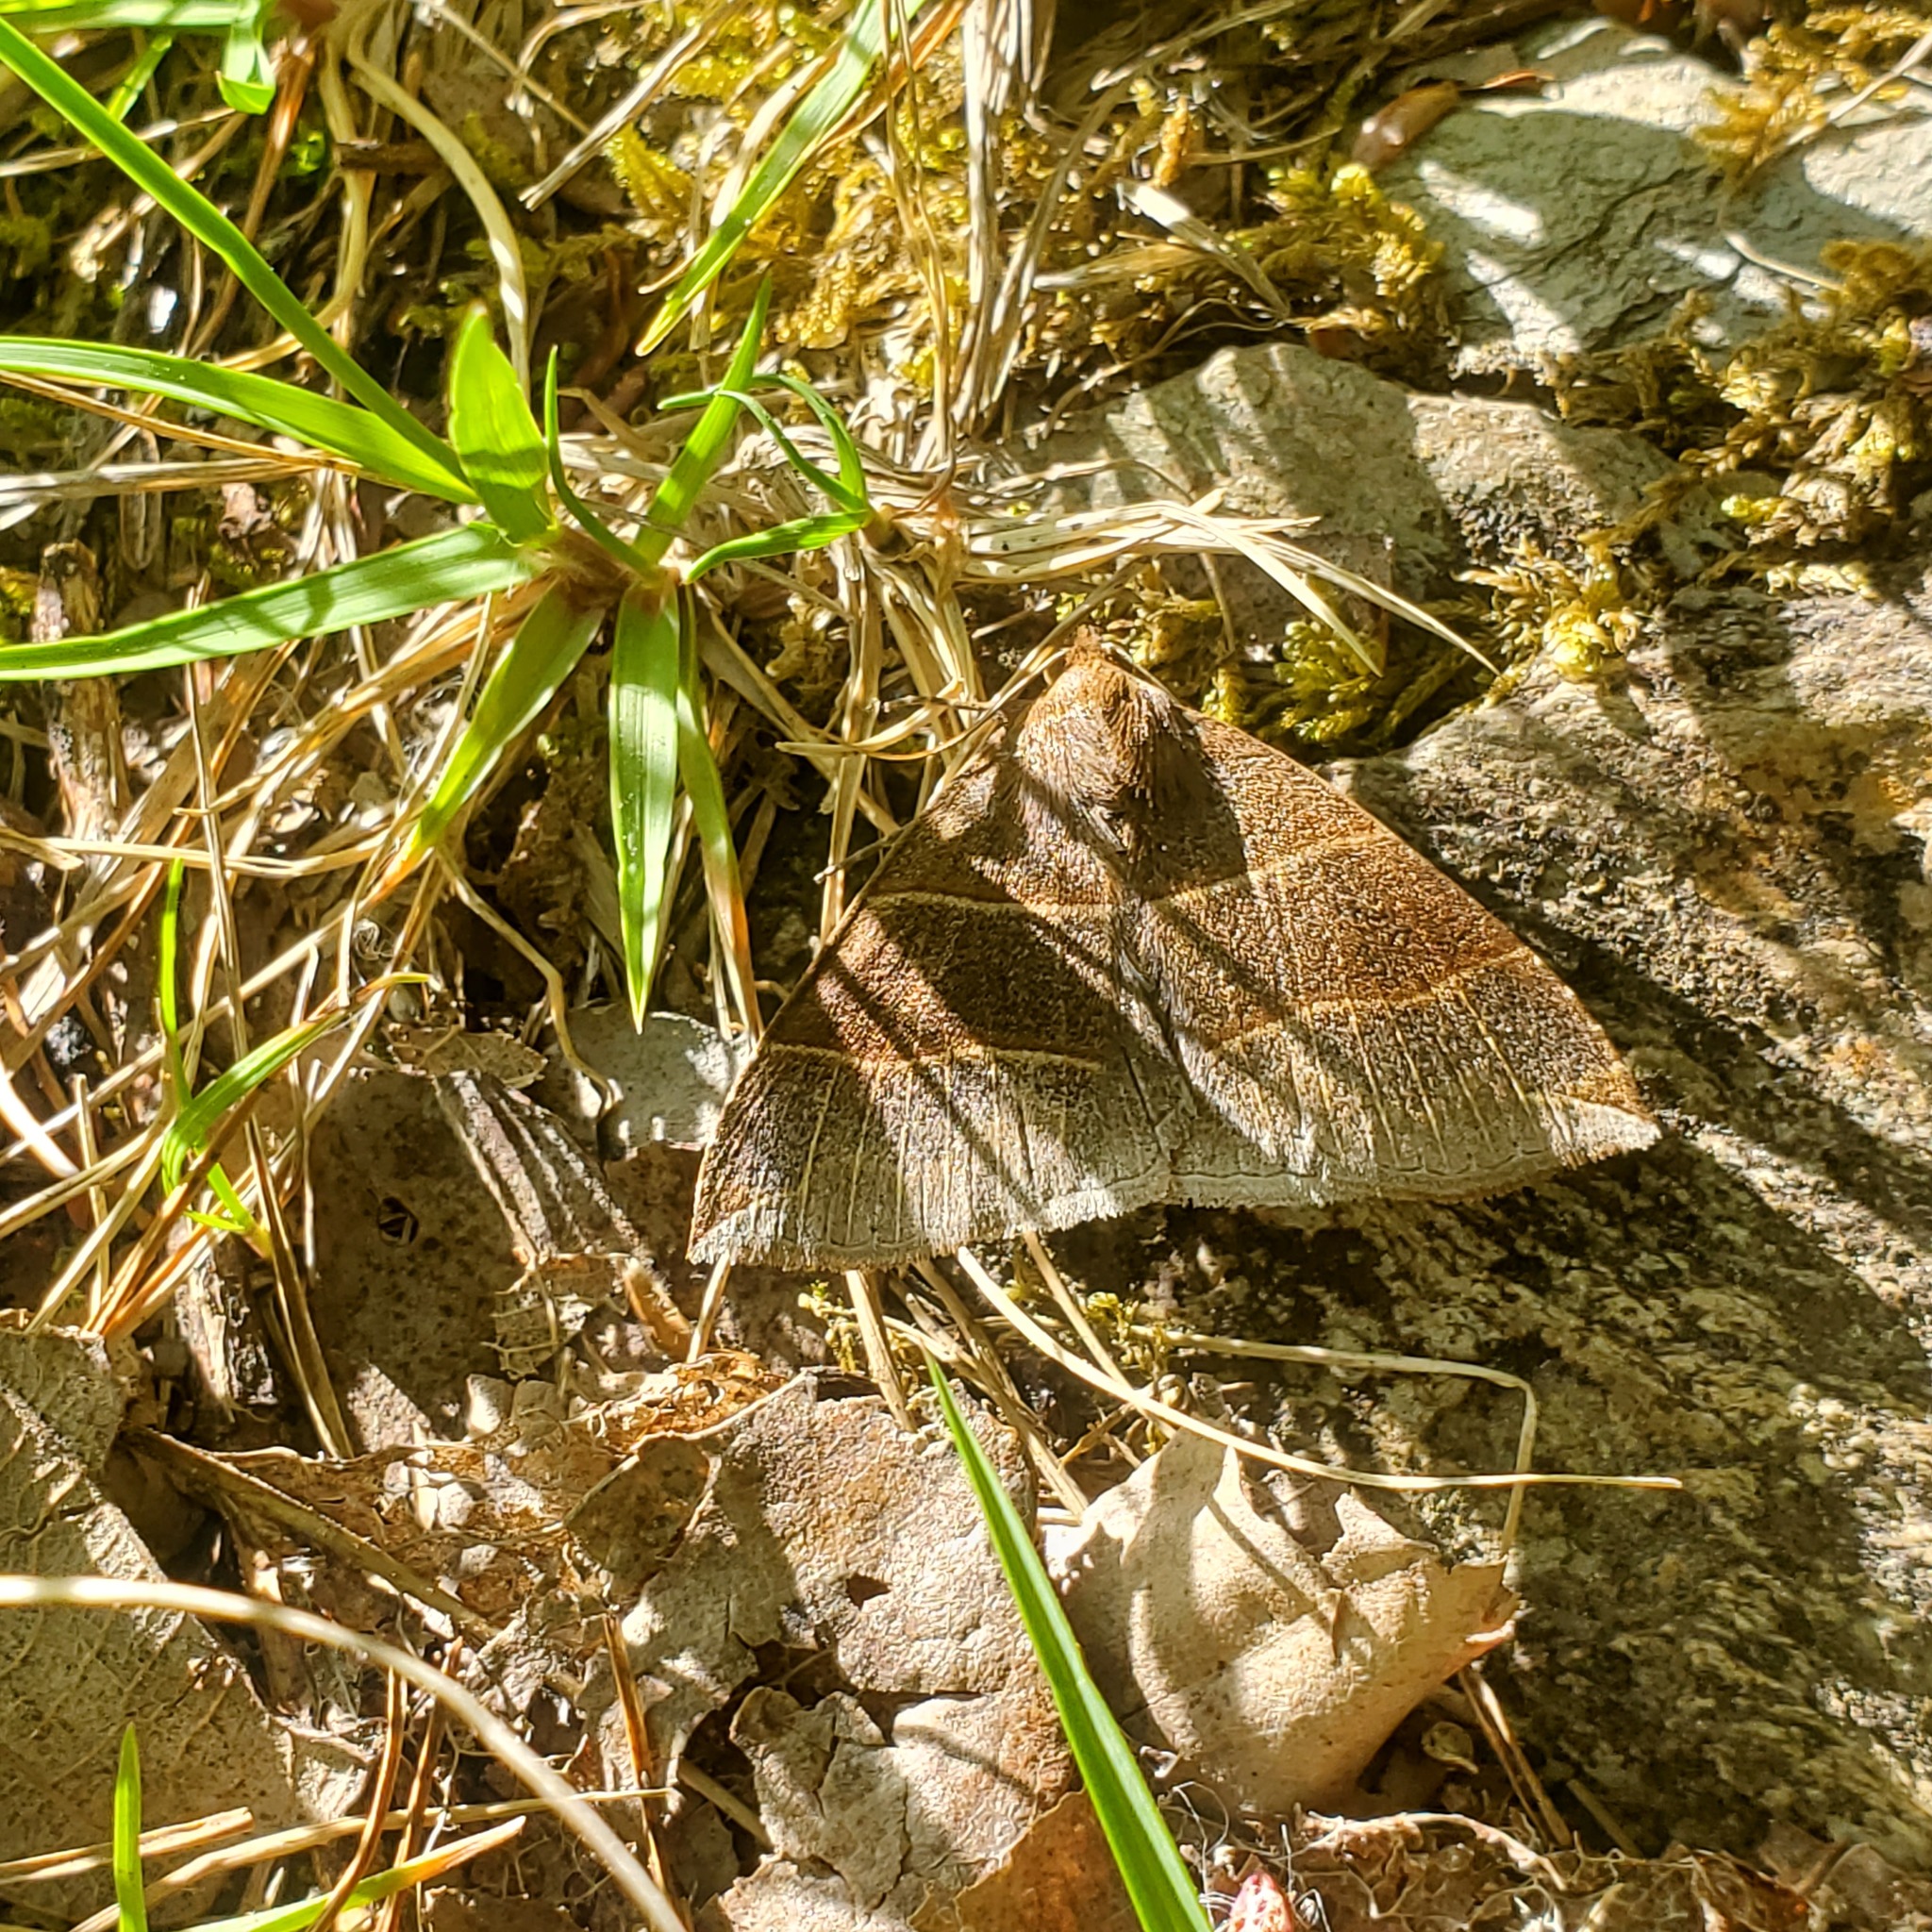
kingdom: Animalia
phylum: Arthropoda
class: Insecta
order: Lepidoptera
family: Erebidae
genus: Parallelia
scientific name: Parallelia bistriaris
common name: Maple looper moth
